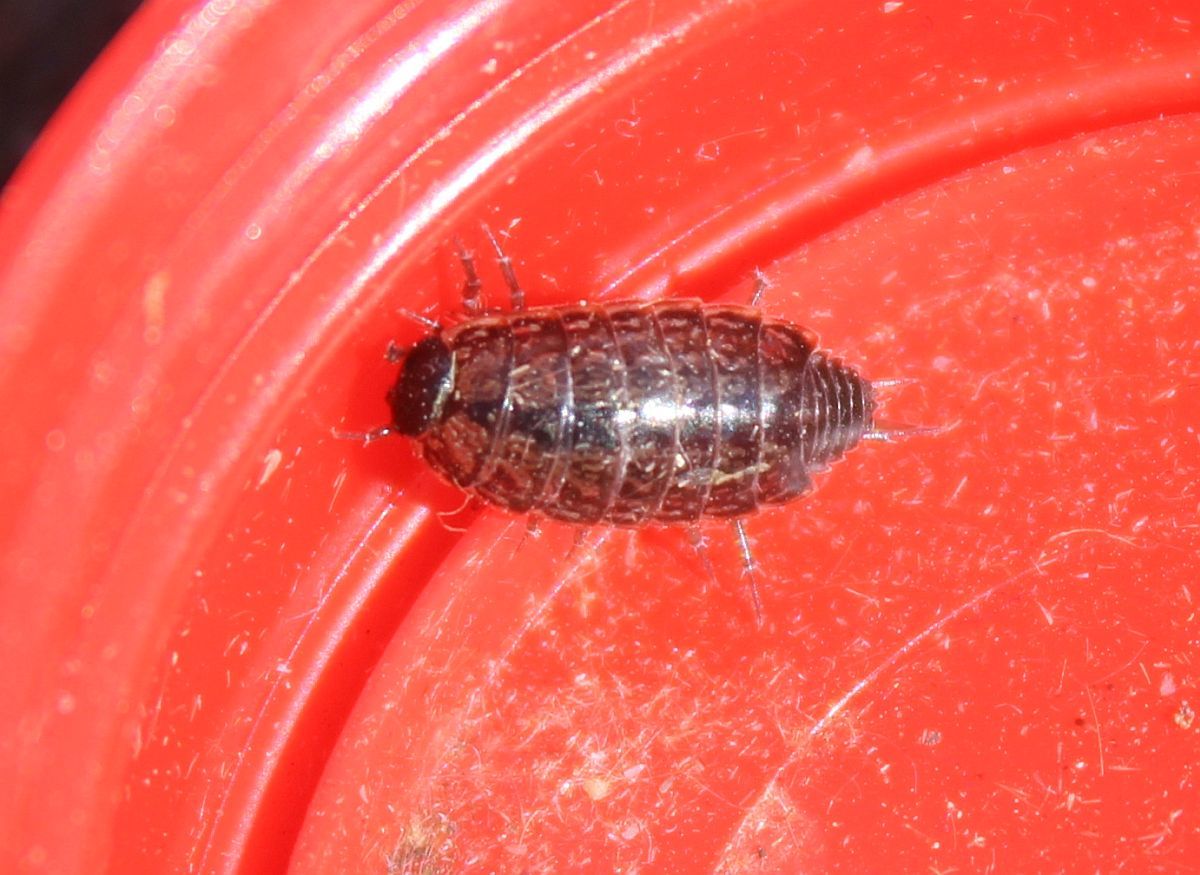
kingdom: Animalia
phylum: Arthropoda
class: Malacostraca
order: Isopoda
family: Philosciidae
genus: Philoscia
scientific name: Philoscia muscorum
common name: Common striped woodlouse
